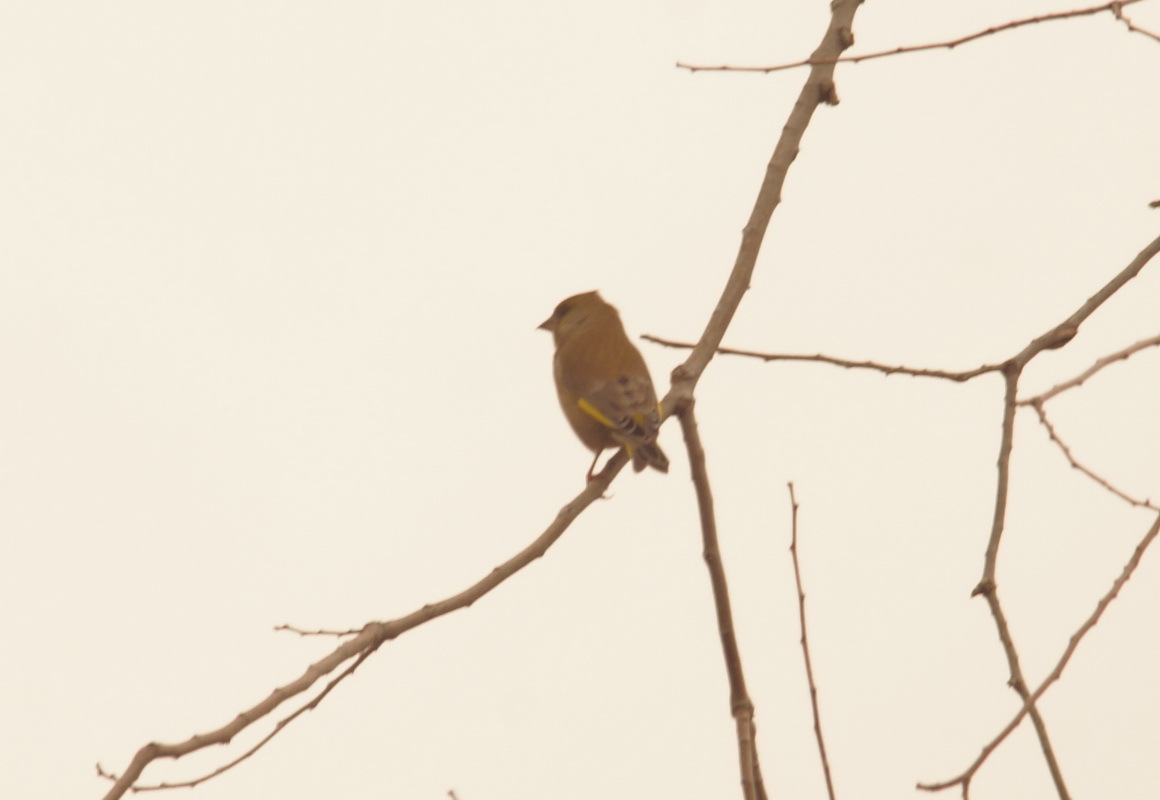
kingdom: Plantae
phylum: Tracheophyta
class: Liliopsida
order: Poales
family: Poaceae
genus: Chloris
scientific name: Chloris chloris
